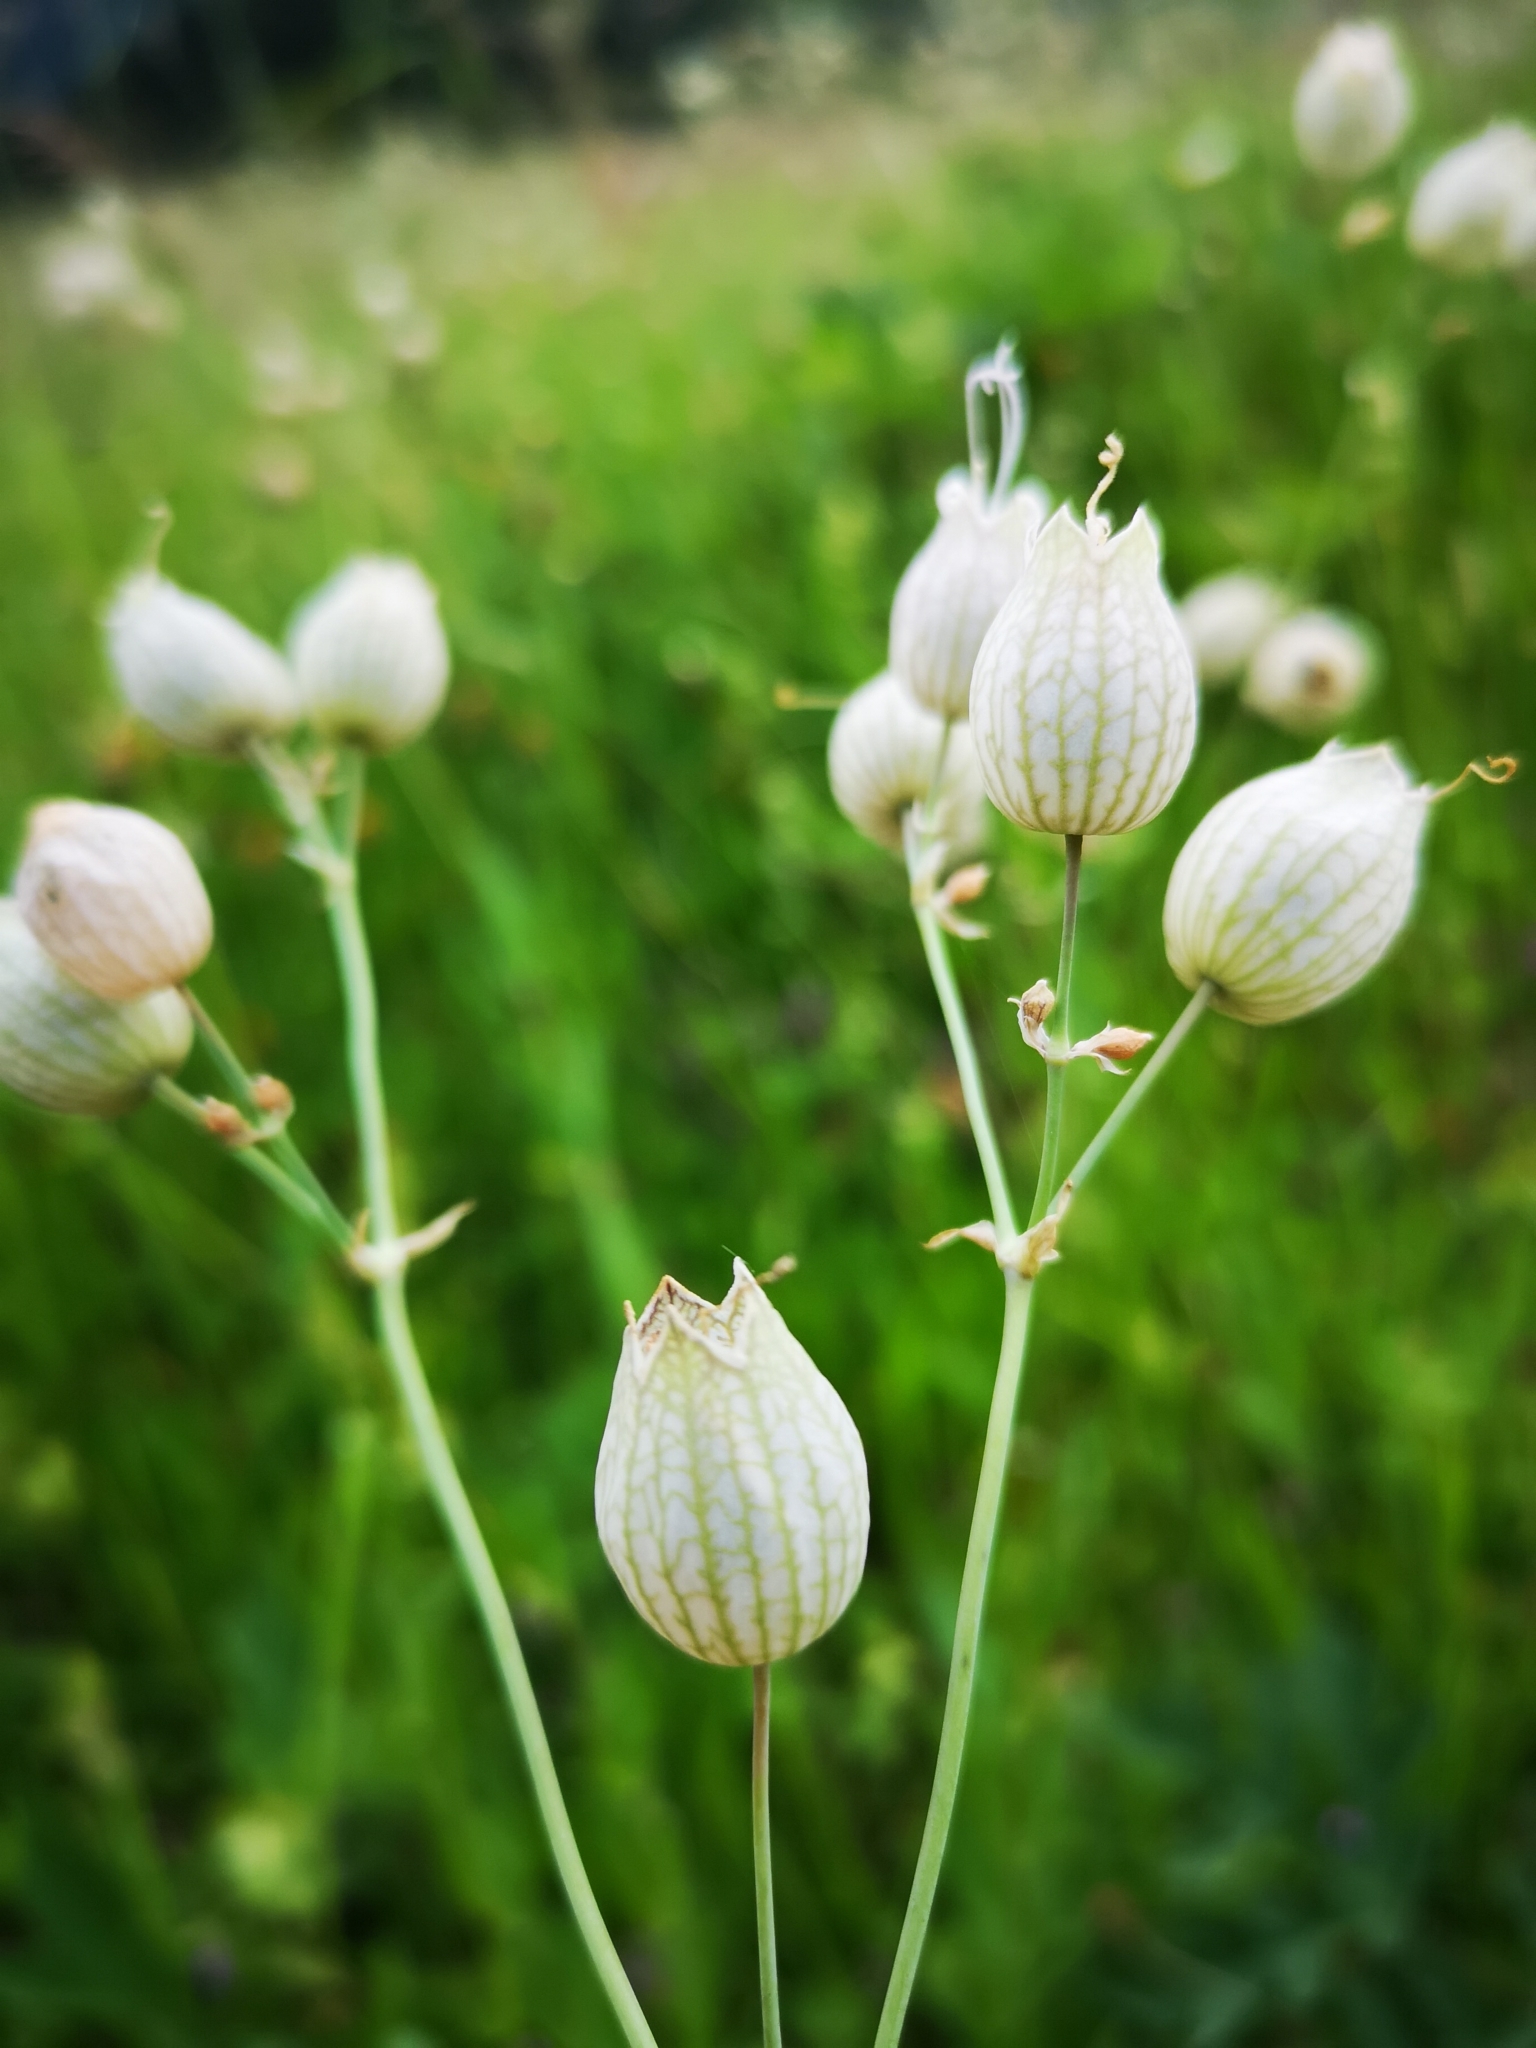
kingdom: Plantae
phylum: Tracheophyta
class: Magnoliopsida
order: Caryophyllales
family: Caryophyllaceae
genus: Silene
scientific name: Silene vulgaris
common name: Bladder campion
